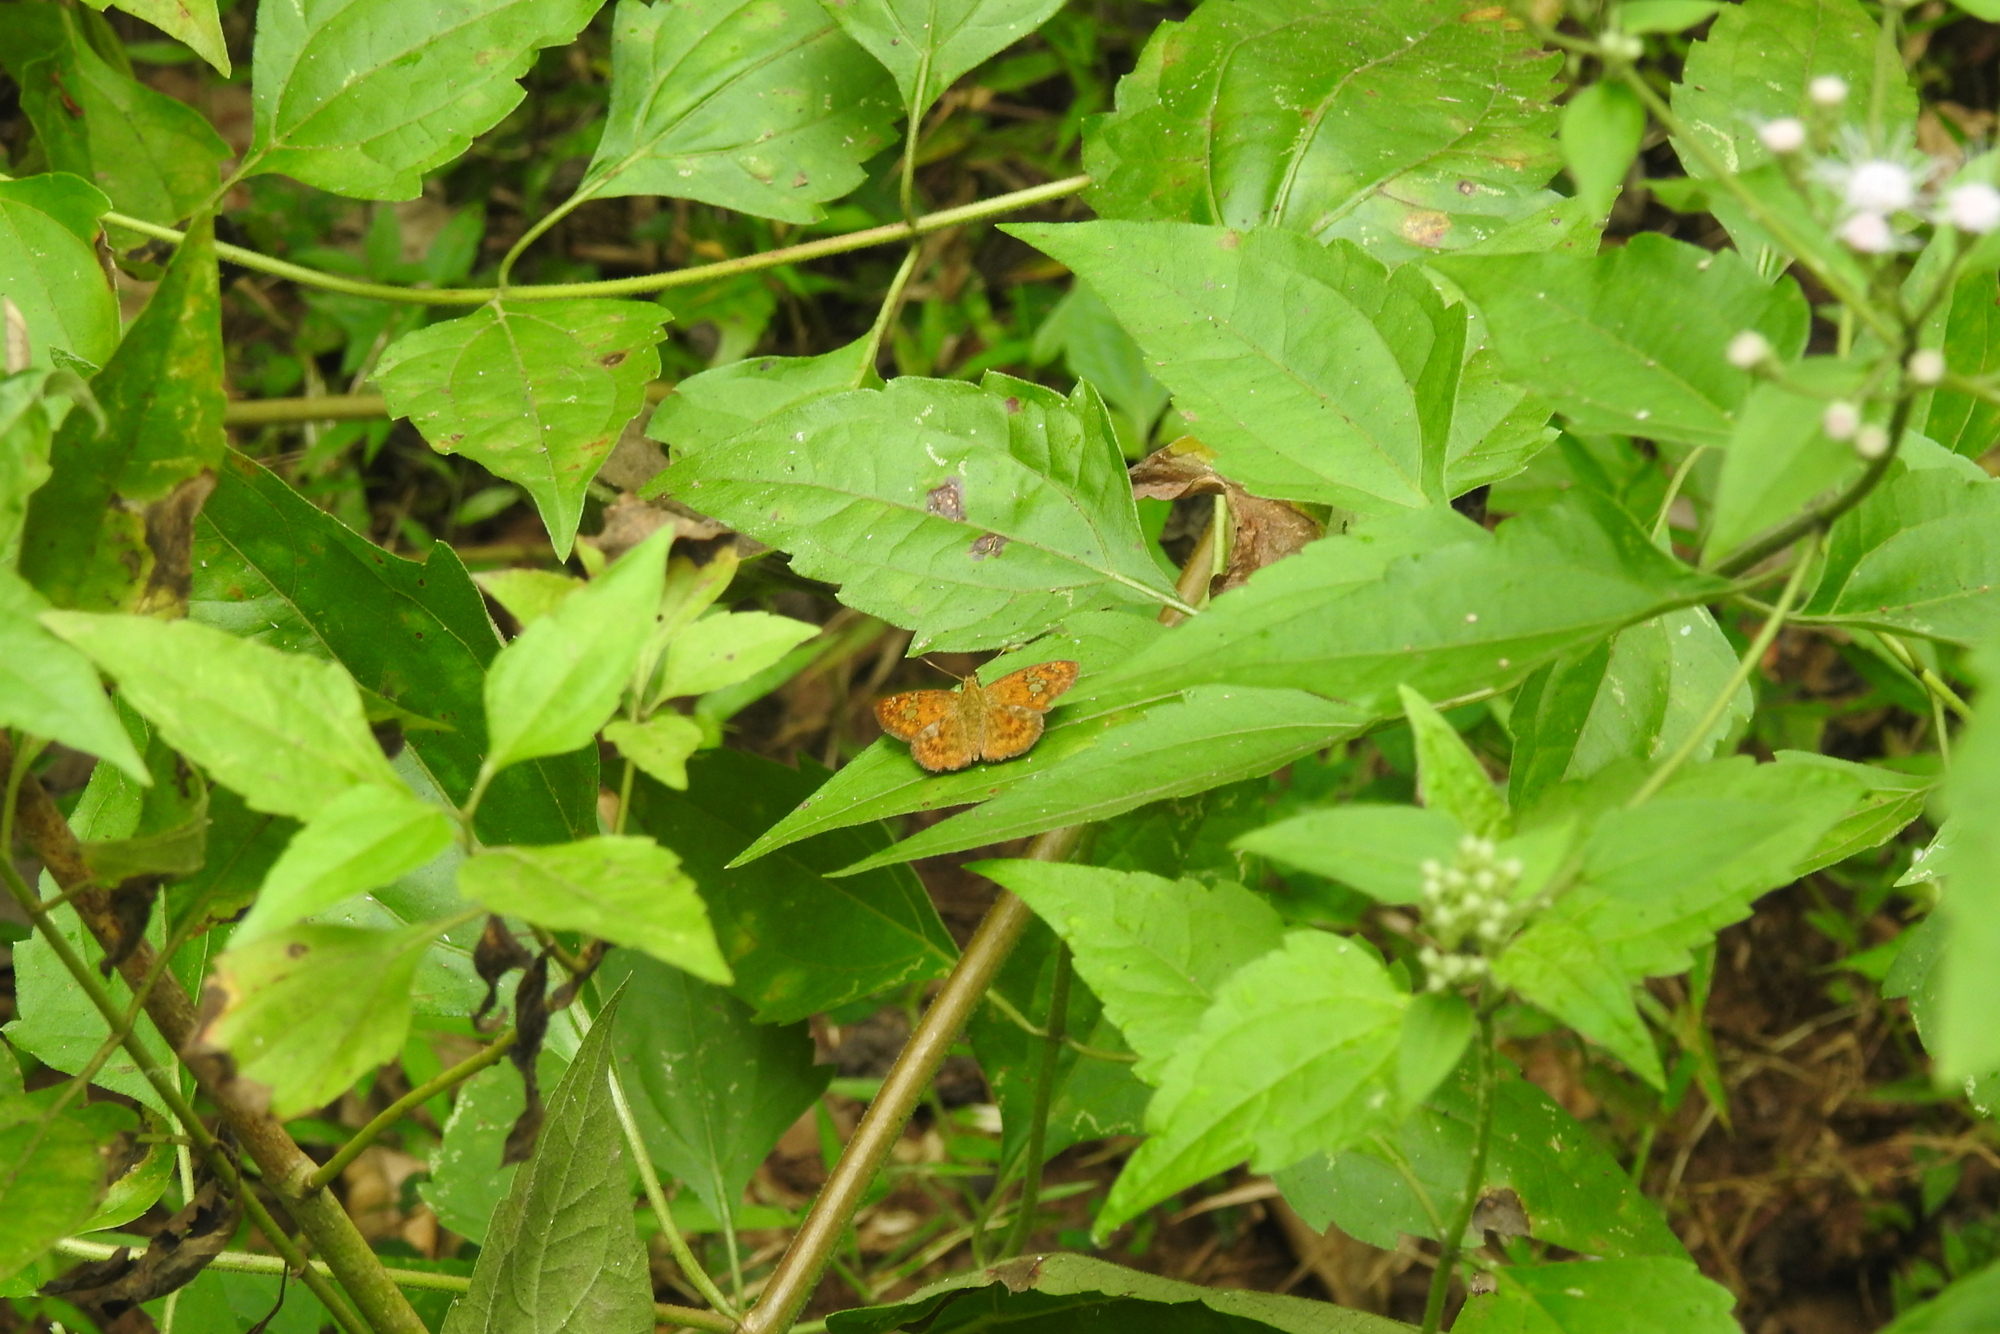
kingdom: Animalia
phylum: Arthropoda
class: Insecta
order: Lepidoptera
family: Hesperiidae
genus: Pseudocoladenia
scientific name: Pseudocoladenia dan
